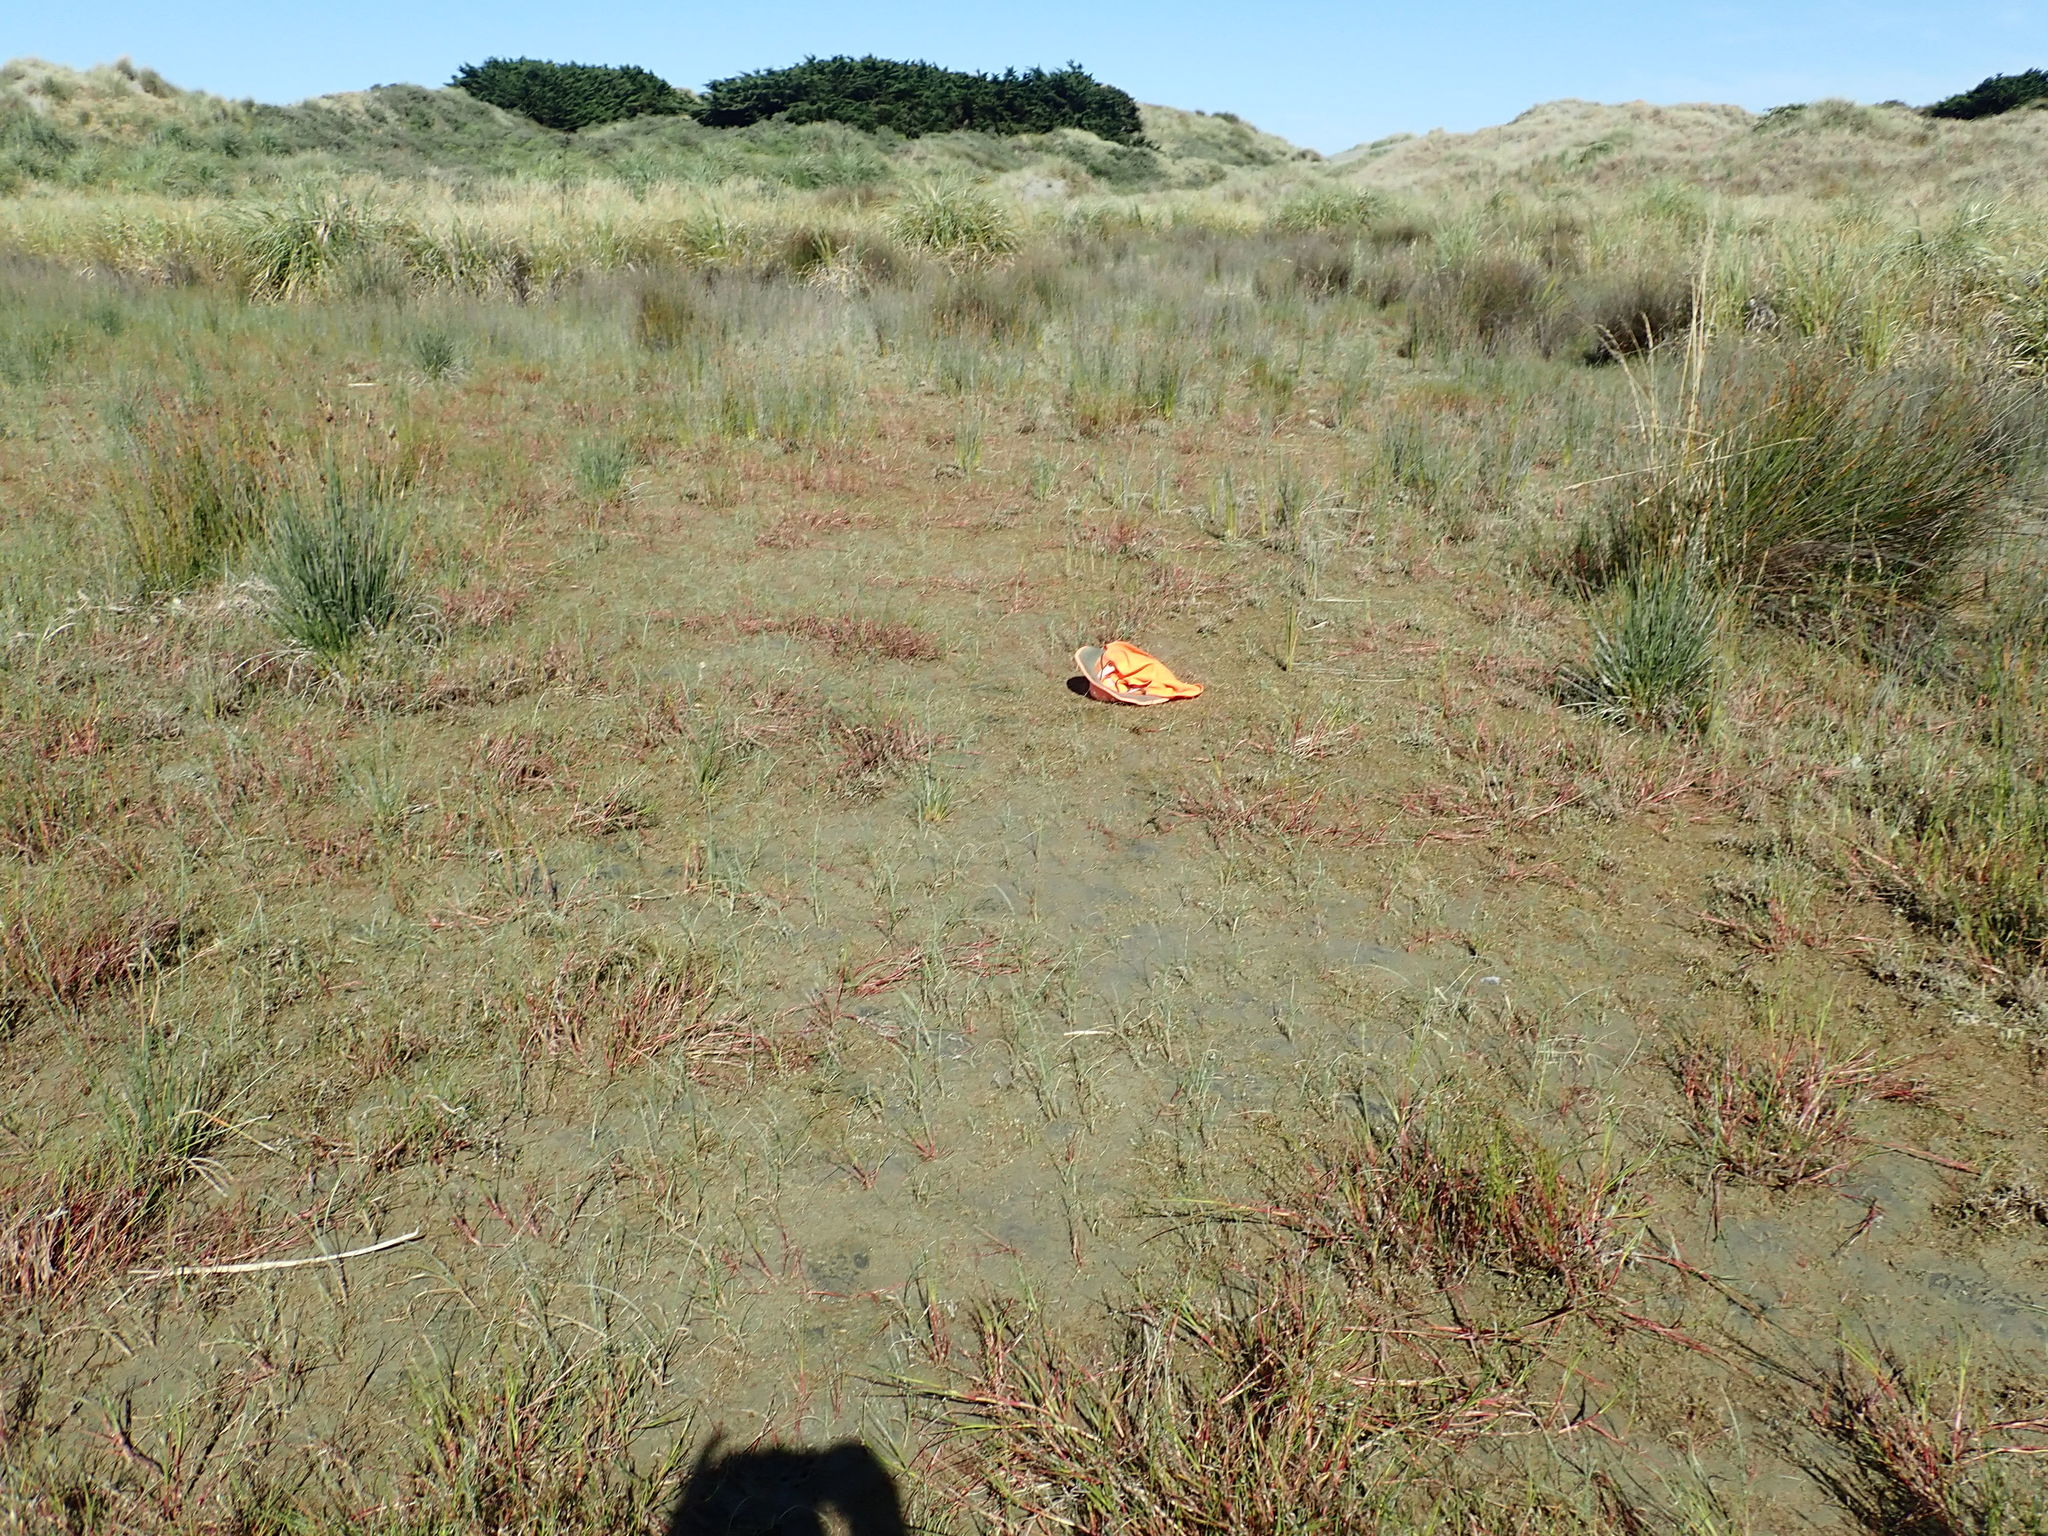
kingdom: Plantae
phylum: Tracheophyta
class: Magnoliopsida
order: Apiales
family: Apiaceae
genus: Lilaeopsis
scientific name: Lilaeopsis novae-zelandiae
